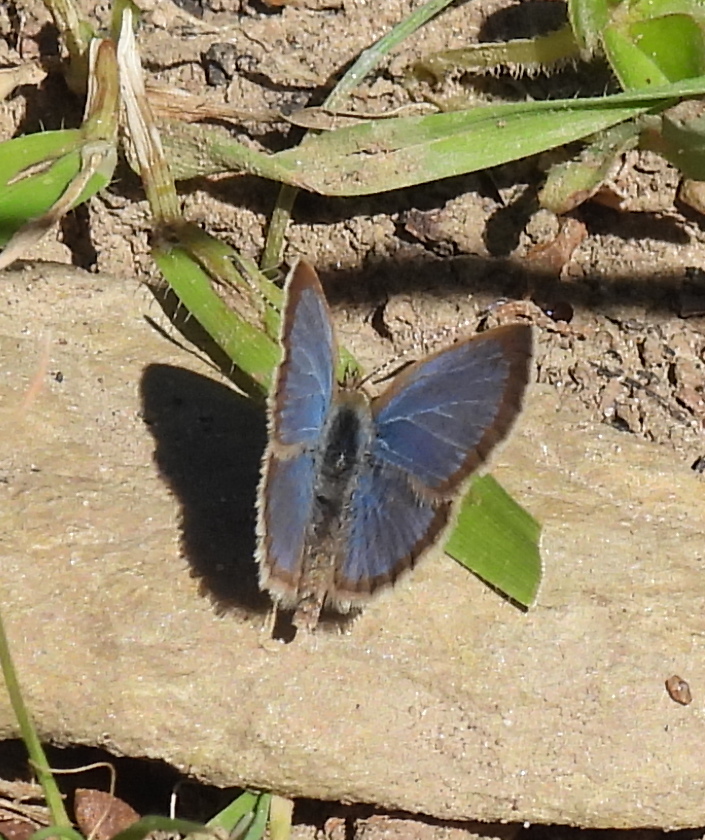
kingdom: Animalia
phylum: Arthropoda
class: Insecta
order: Lepidoptera
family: Lycaenidae
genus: Zizeeria
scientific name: Zizeeria knysna
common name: African grass blue
